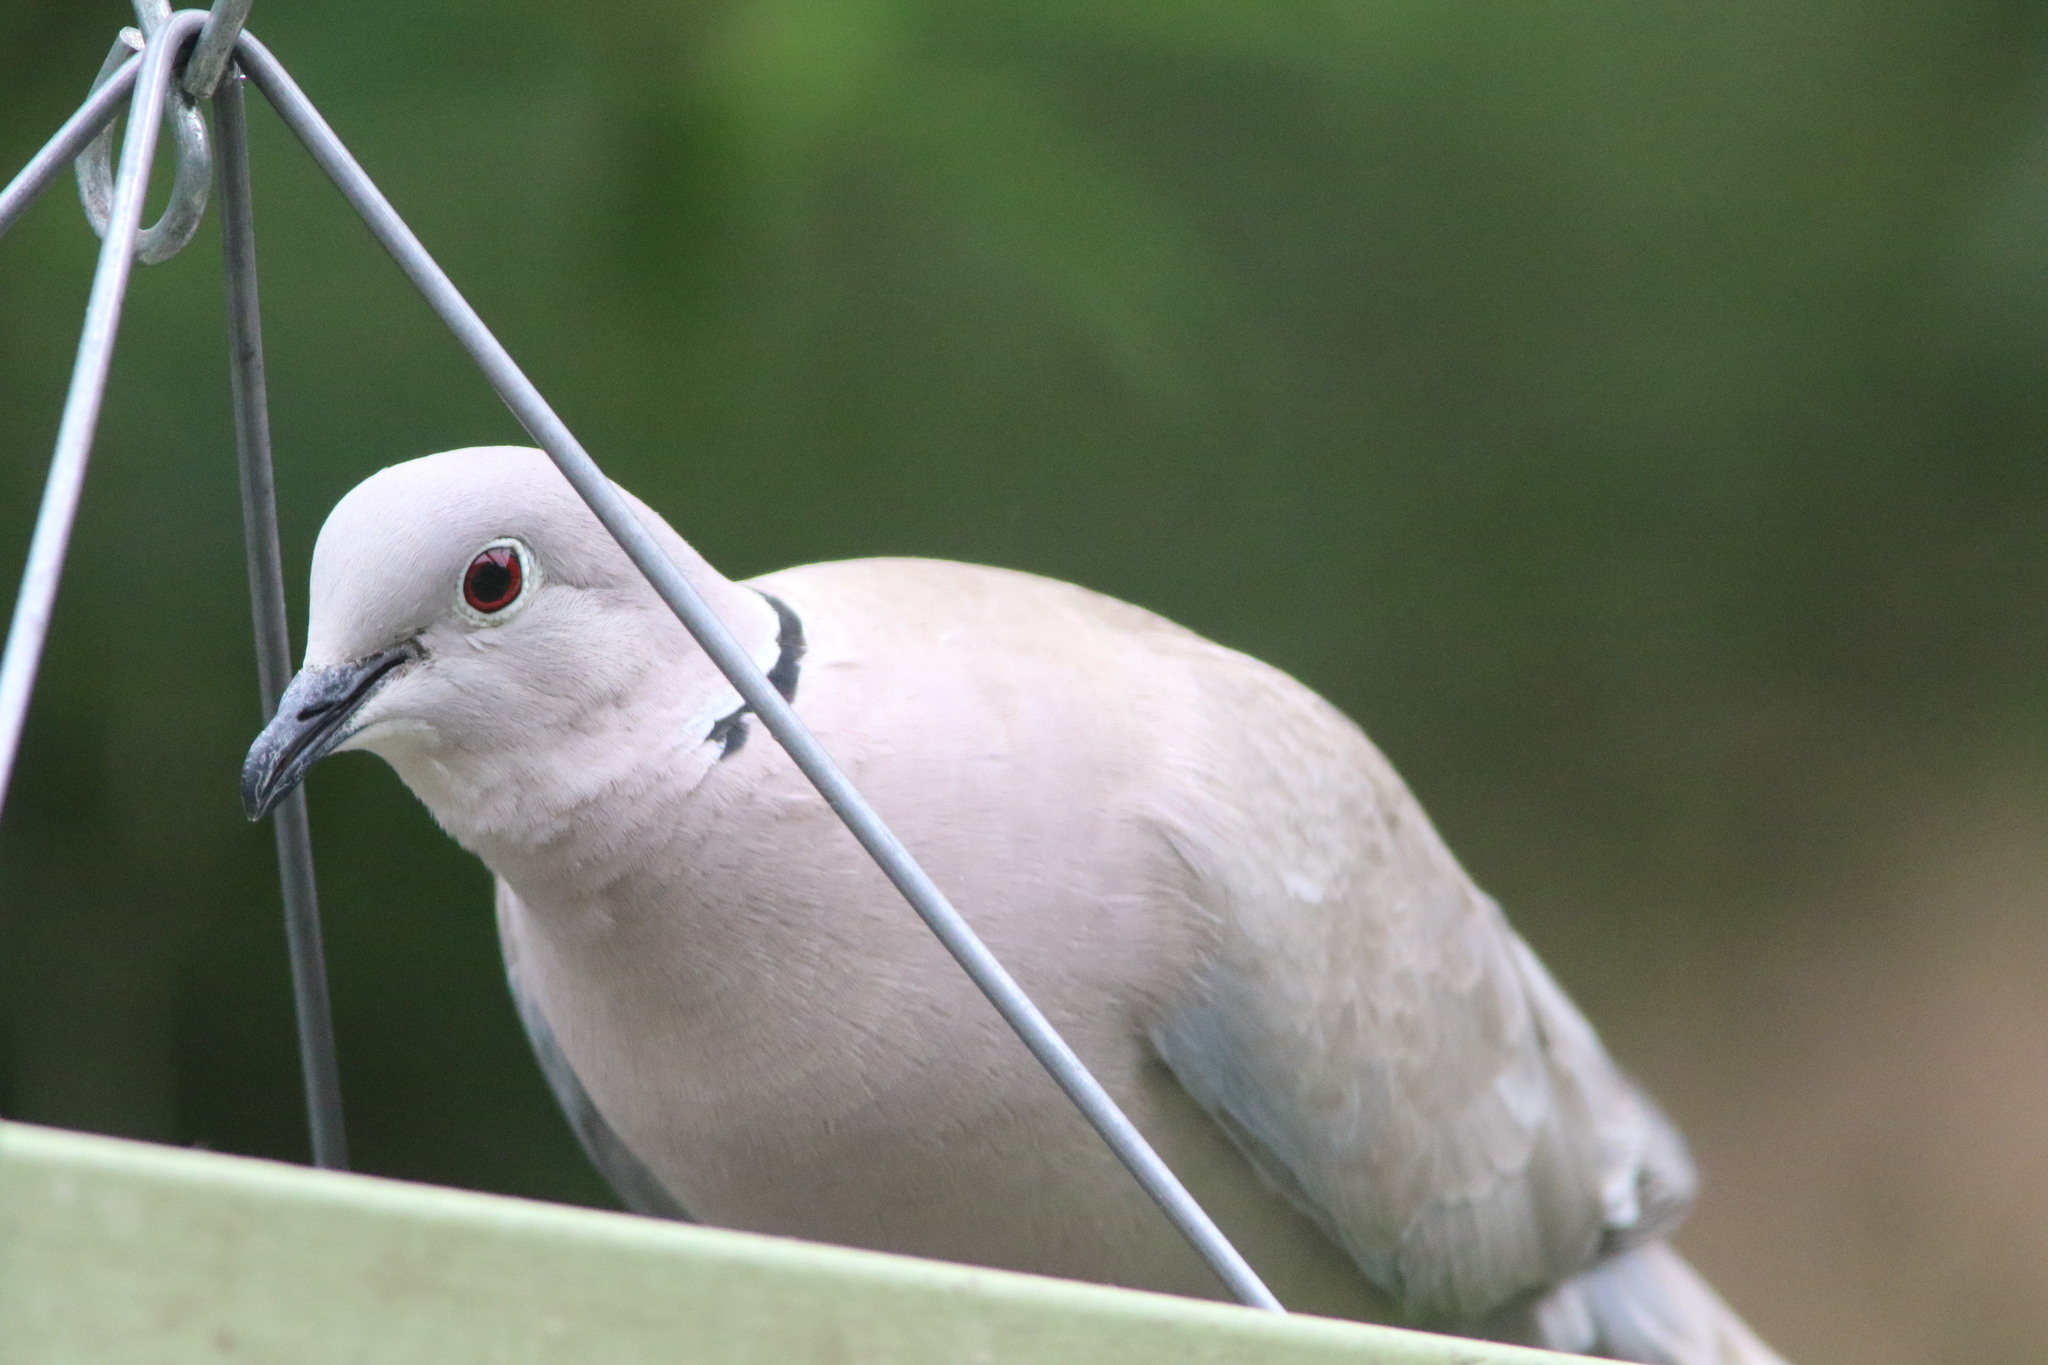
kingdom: Animalia
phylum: Chordata
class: Aves
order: Columbiformes
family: Columbidae
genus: Streptopelia
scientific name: Streptopelia decaocto
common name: Eurasian collared dove
